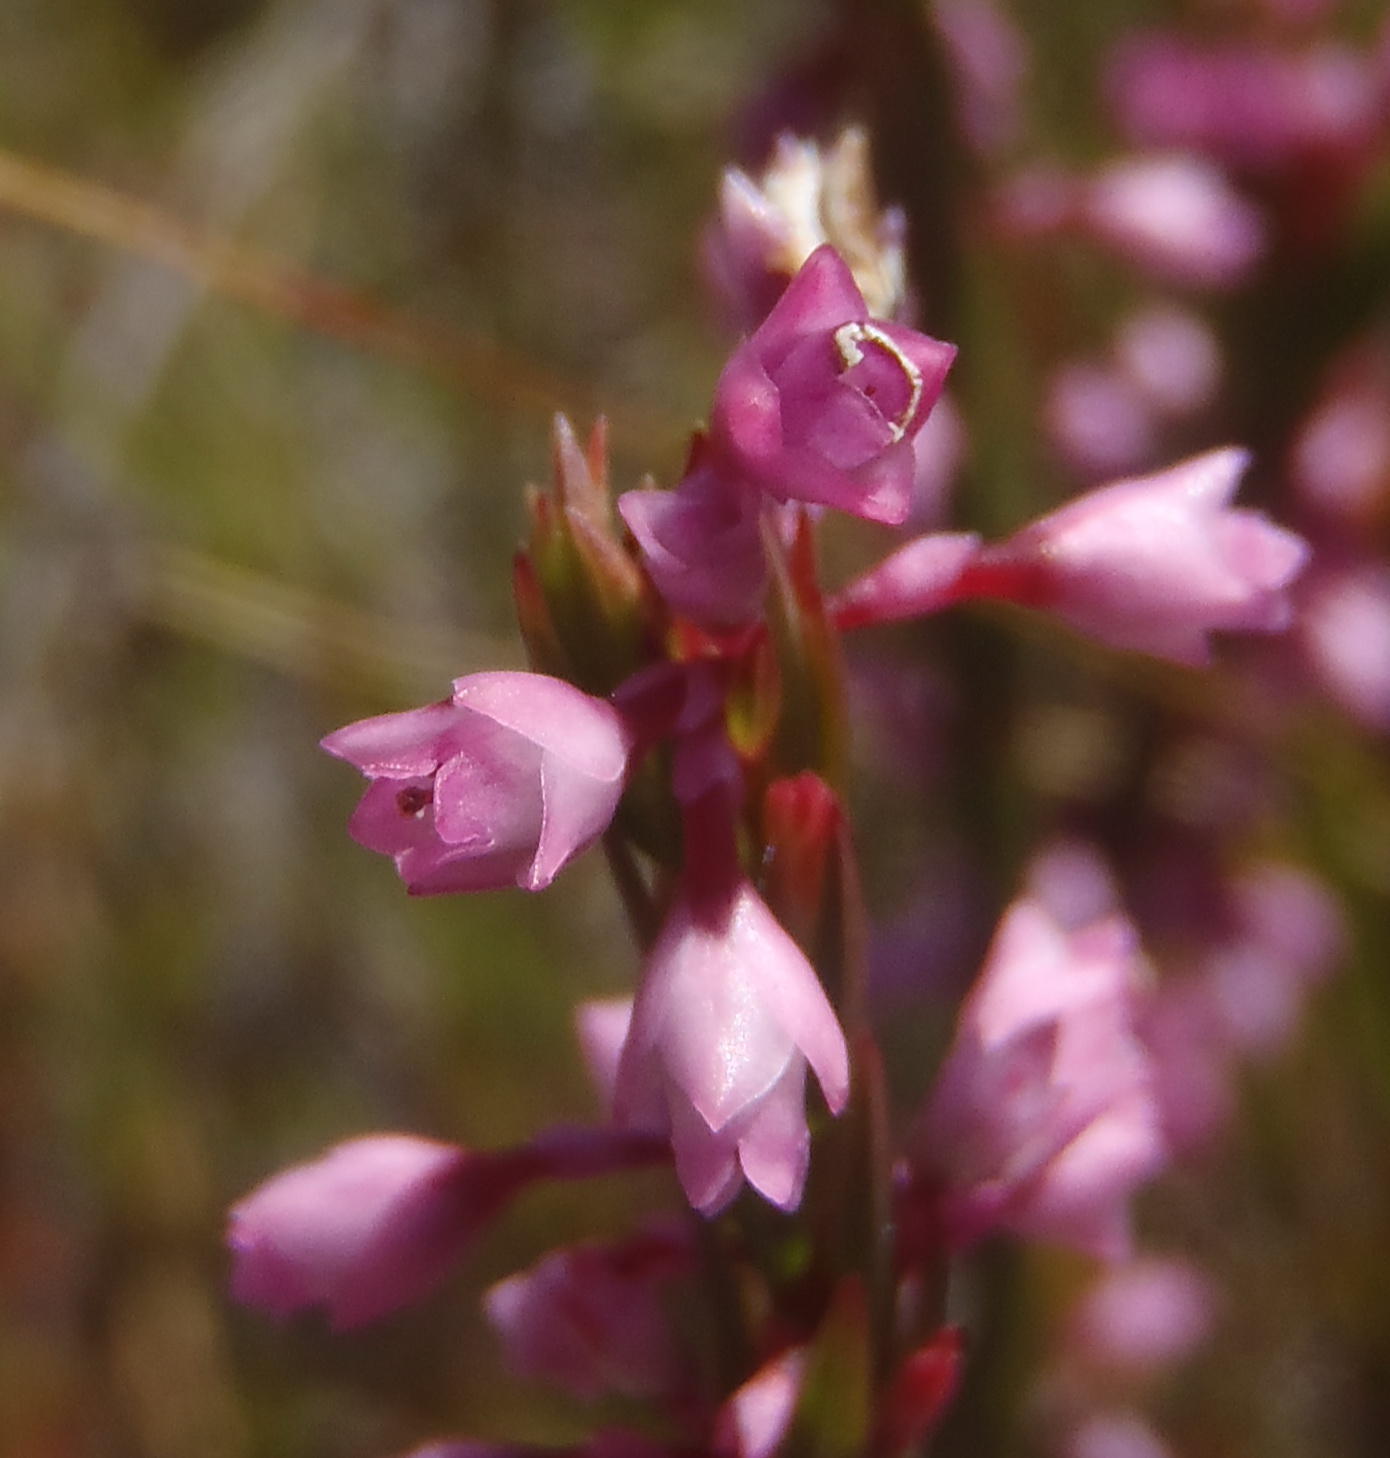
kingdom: Plantae
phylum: Tracheophyta
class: Magnoliopsida
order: Ericales
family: Ericaceae
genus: Erica
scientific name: Erica articularis
